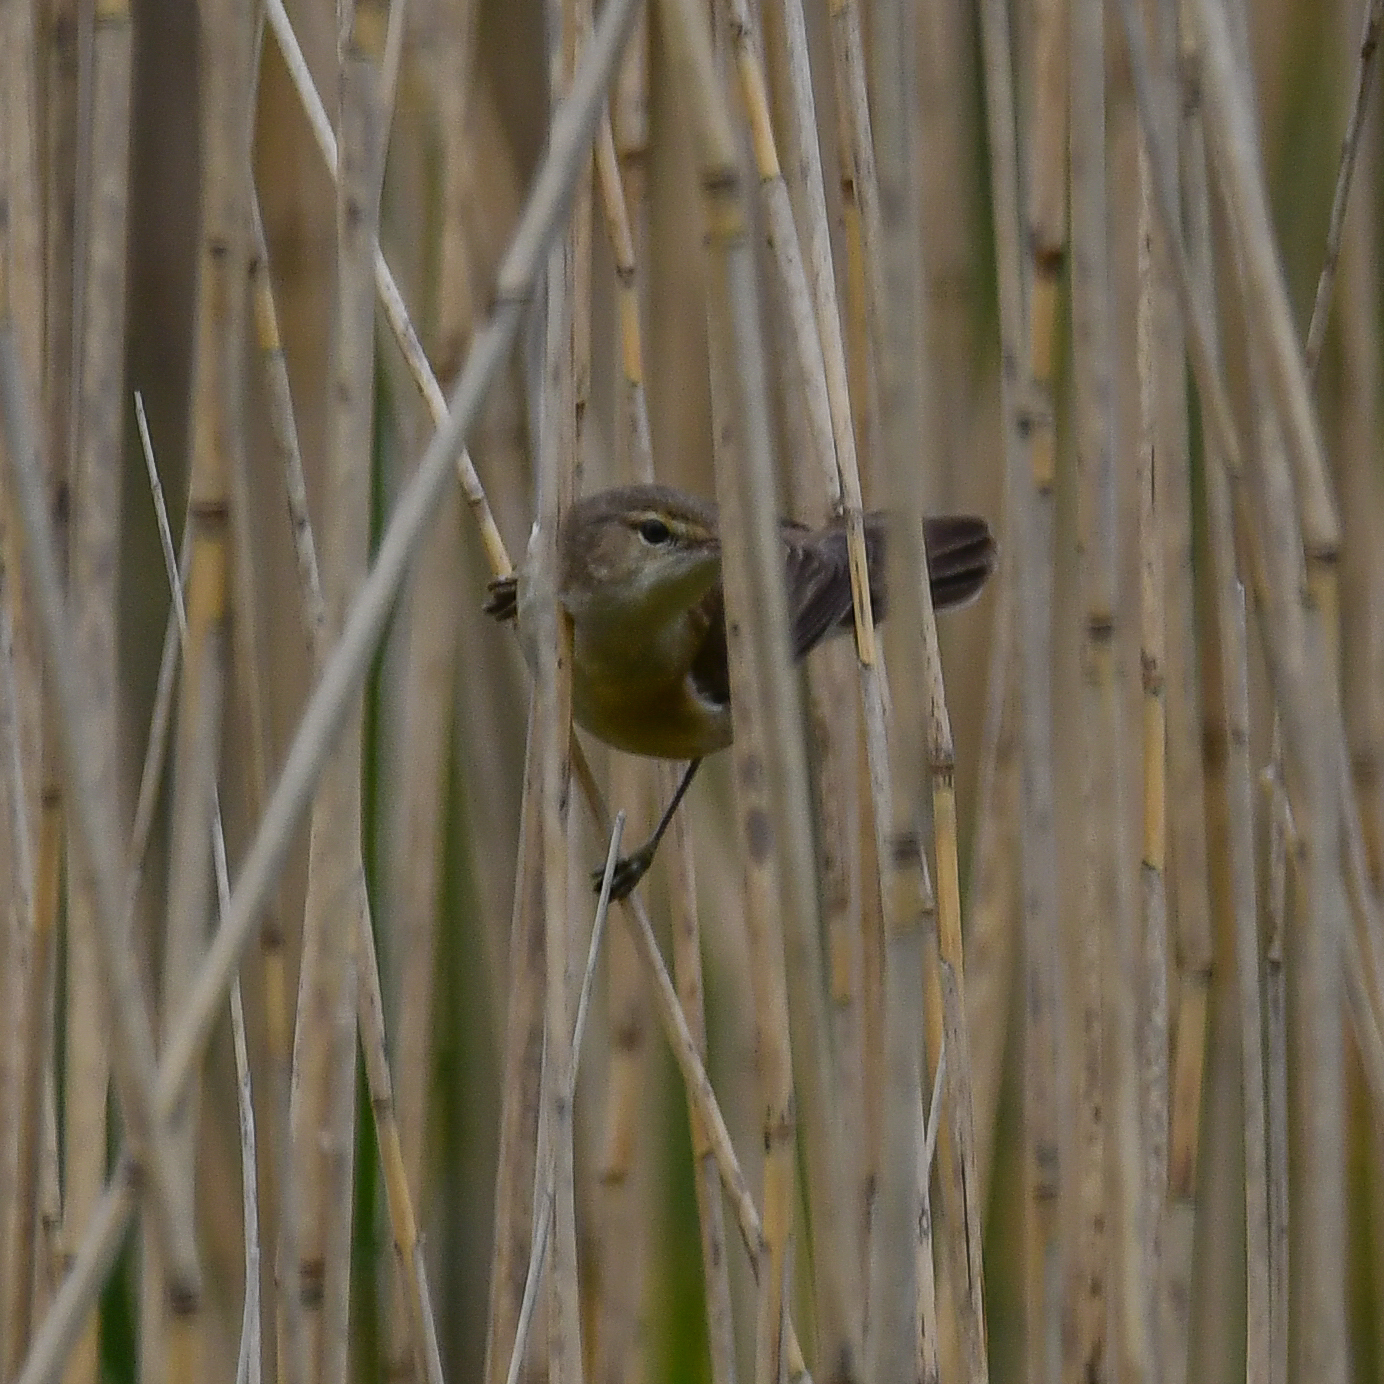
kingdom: Animalia
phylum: Chordata
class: Aves
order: Passeriformes
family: Acrocephalidae
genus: Acrocephalus
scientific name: Acrocephalus scirpaceus
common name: Eurasian reed warbler
